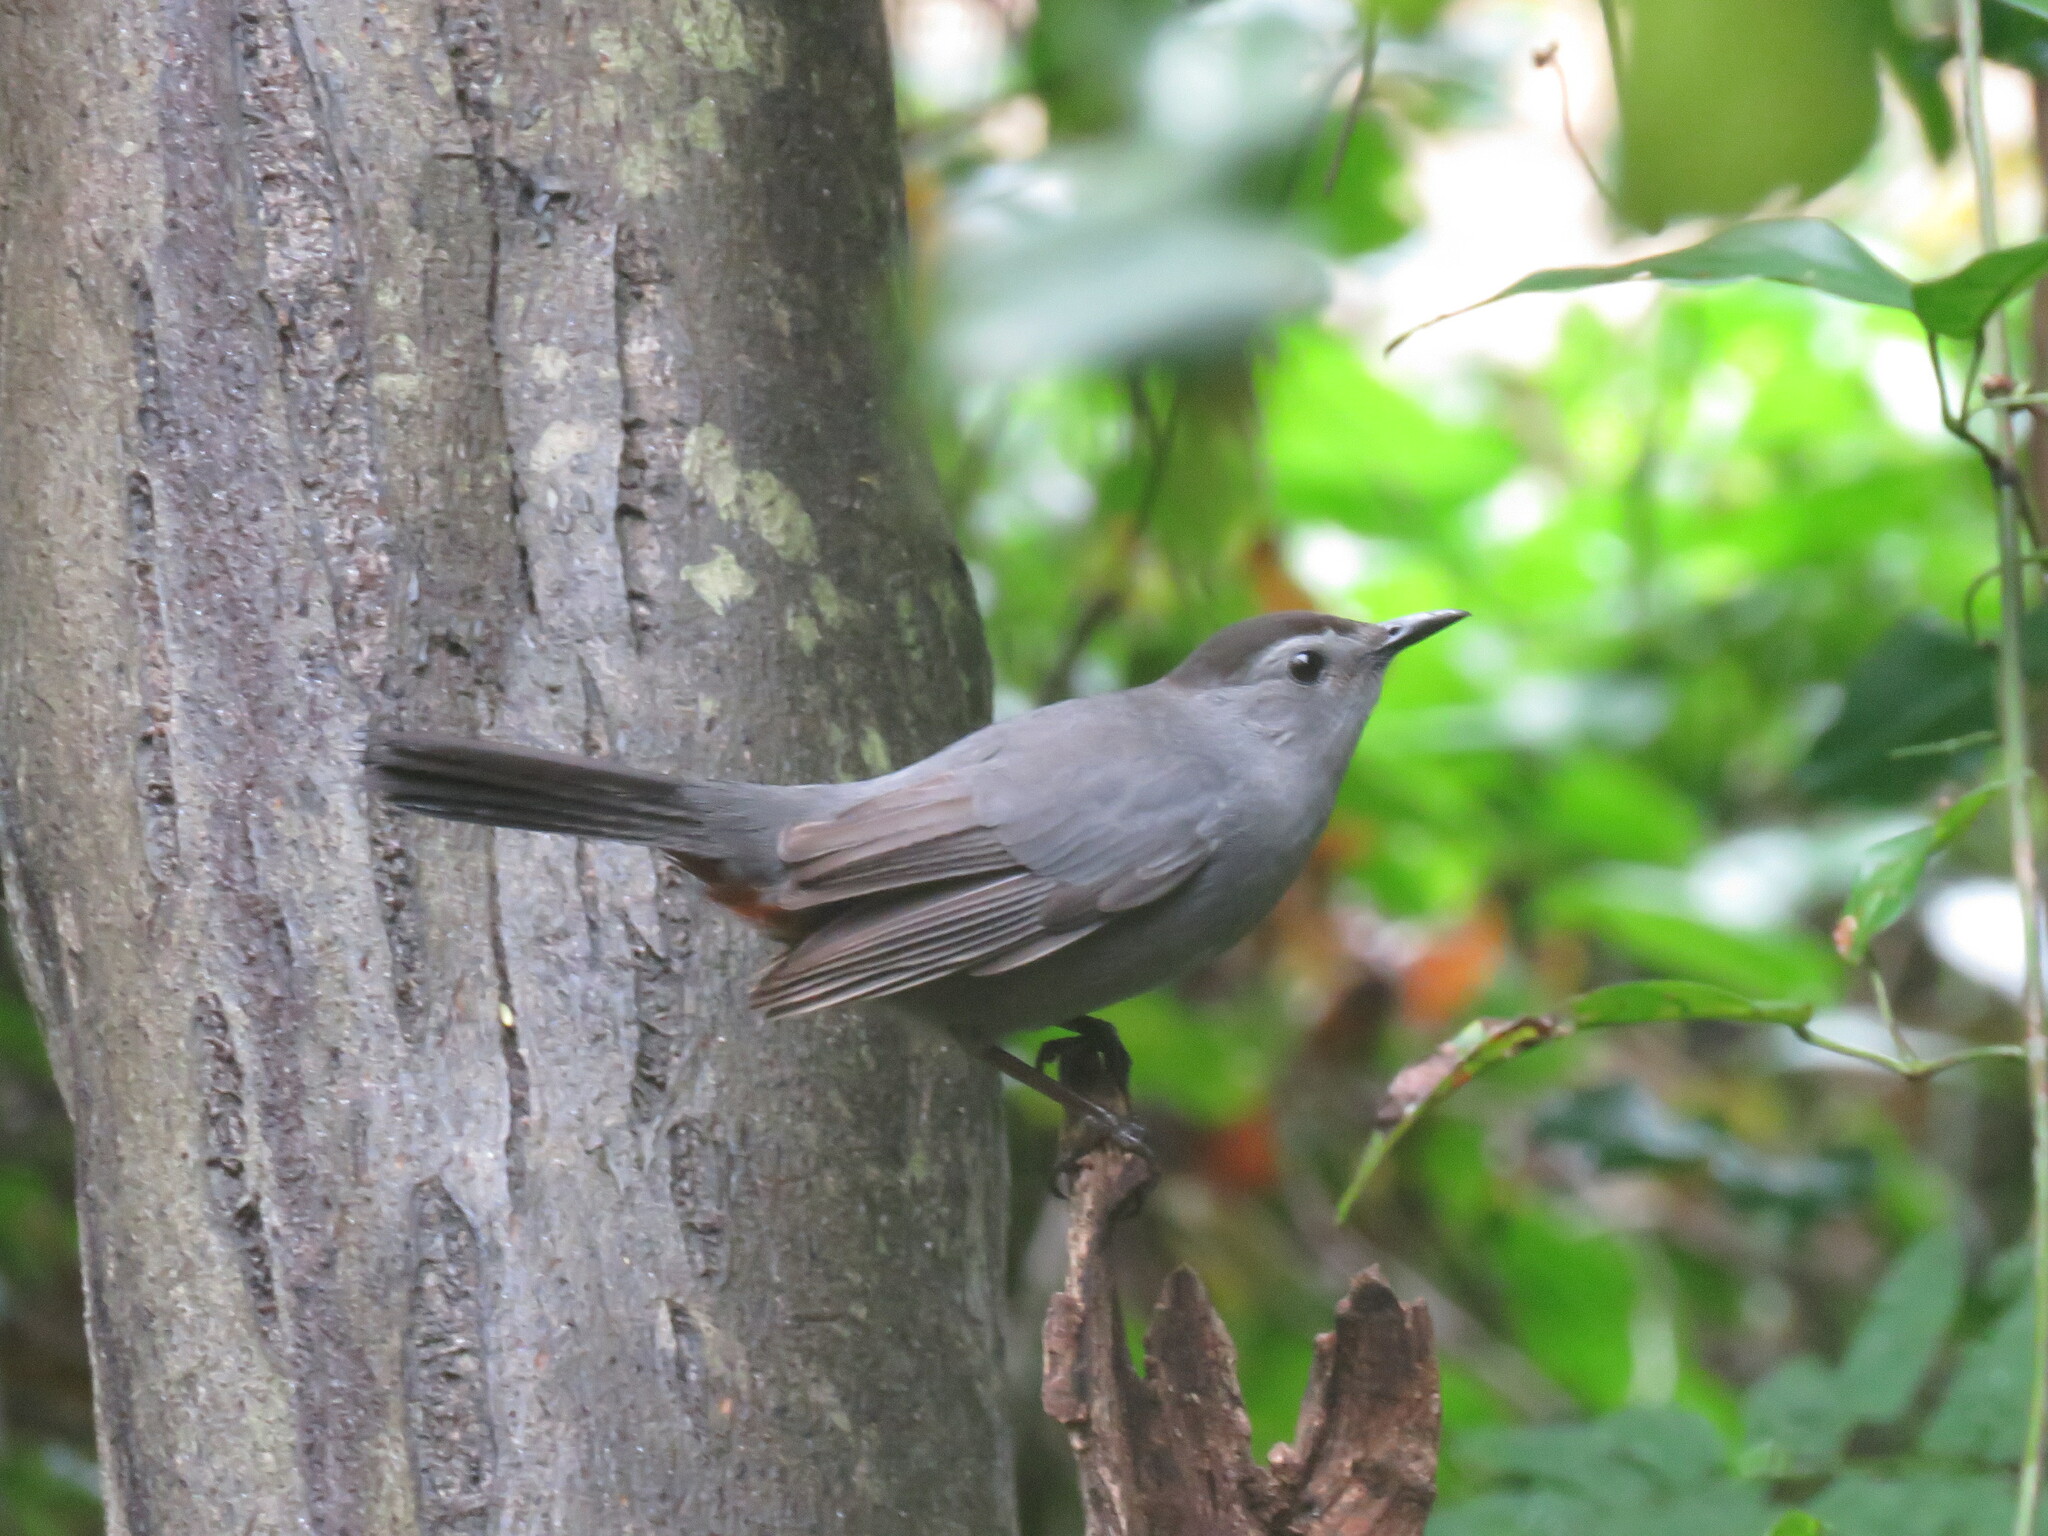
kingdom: Animalia
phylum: Chordata
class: Aves
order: Passeriformes
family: Mimidae
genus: Dumetella
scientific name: Dumetella carolinensis
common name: Gray catbird
